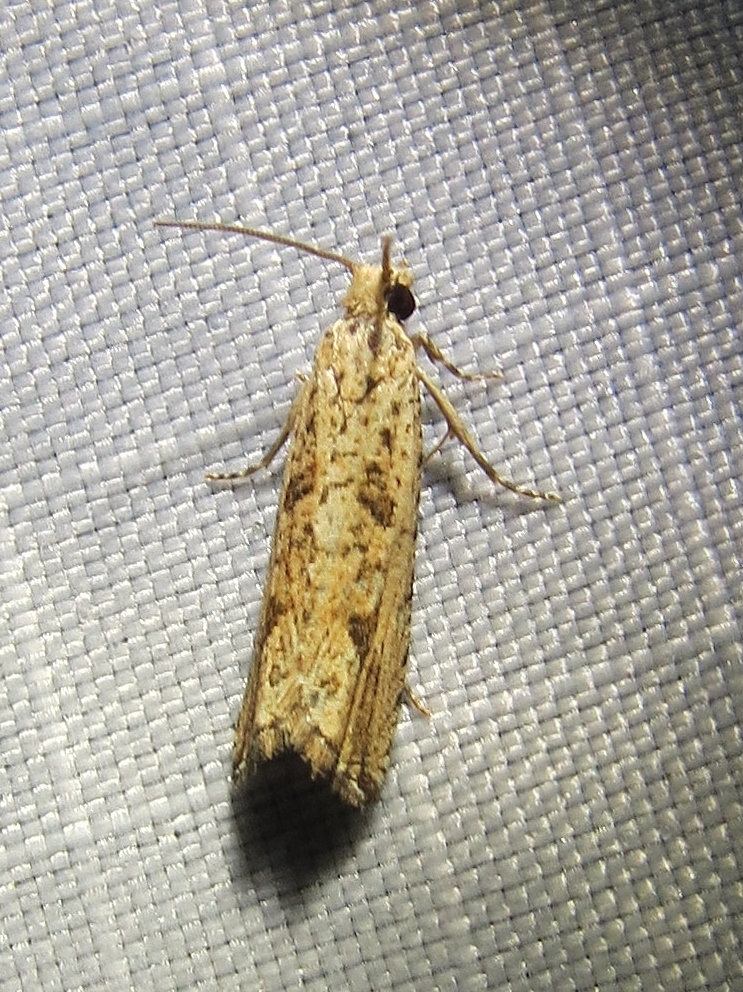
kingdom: Animalia
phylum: Arthropoda
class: Insecta
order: Lepidoptera
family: Tortricidae
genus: Bactra
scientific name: Bactra verutana
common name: Javelin moth
